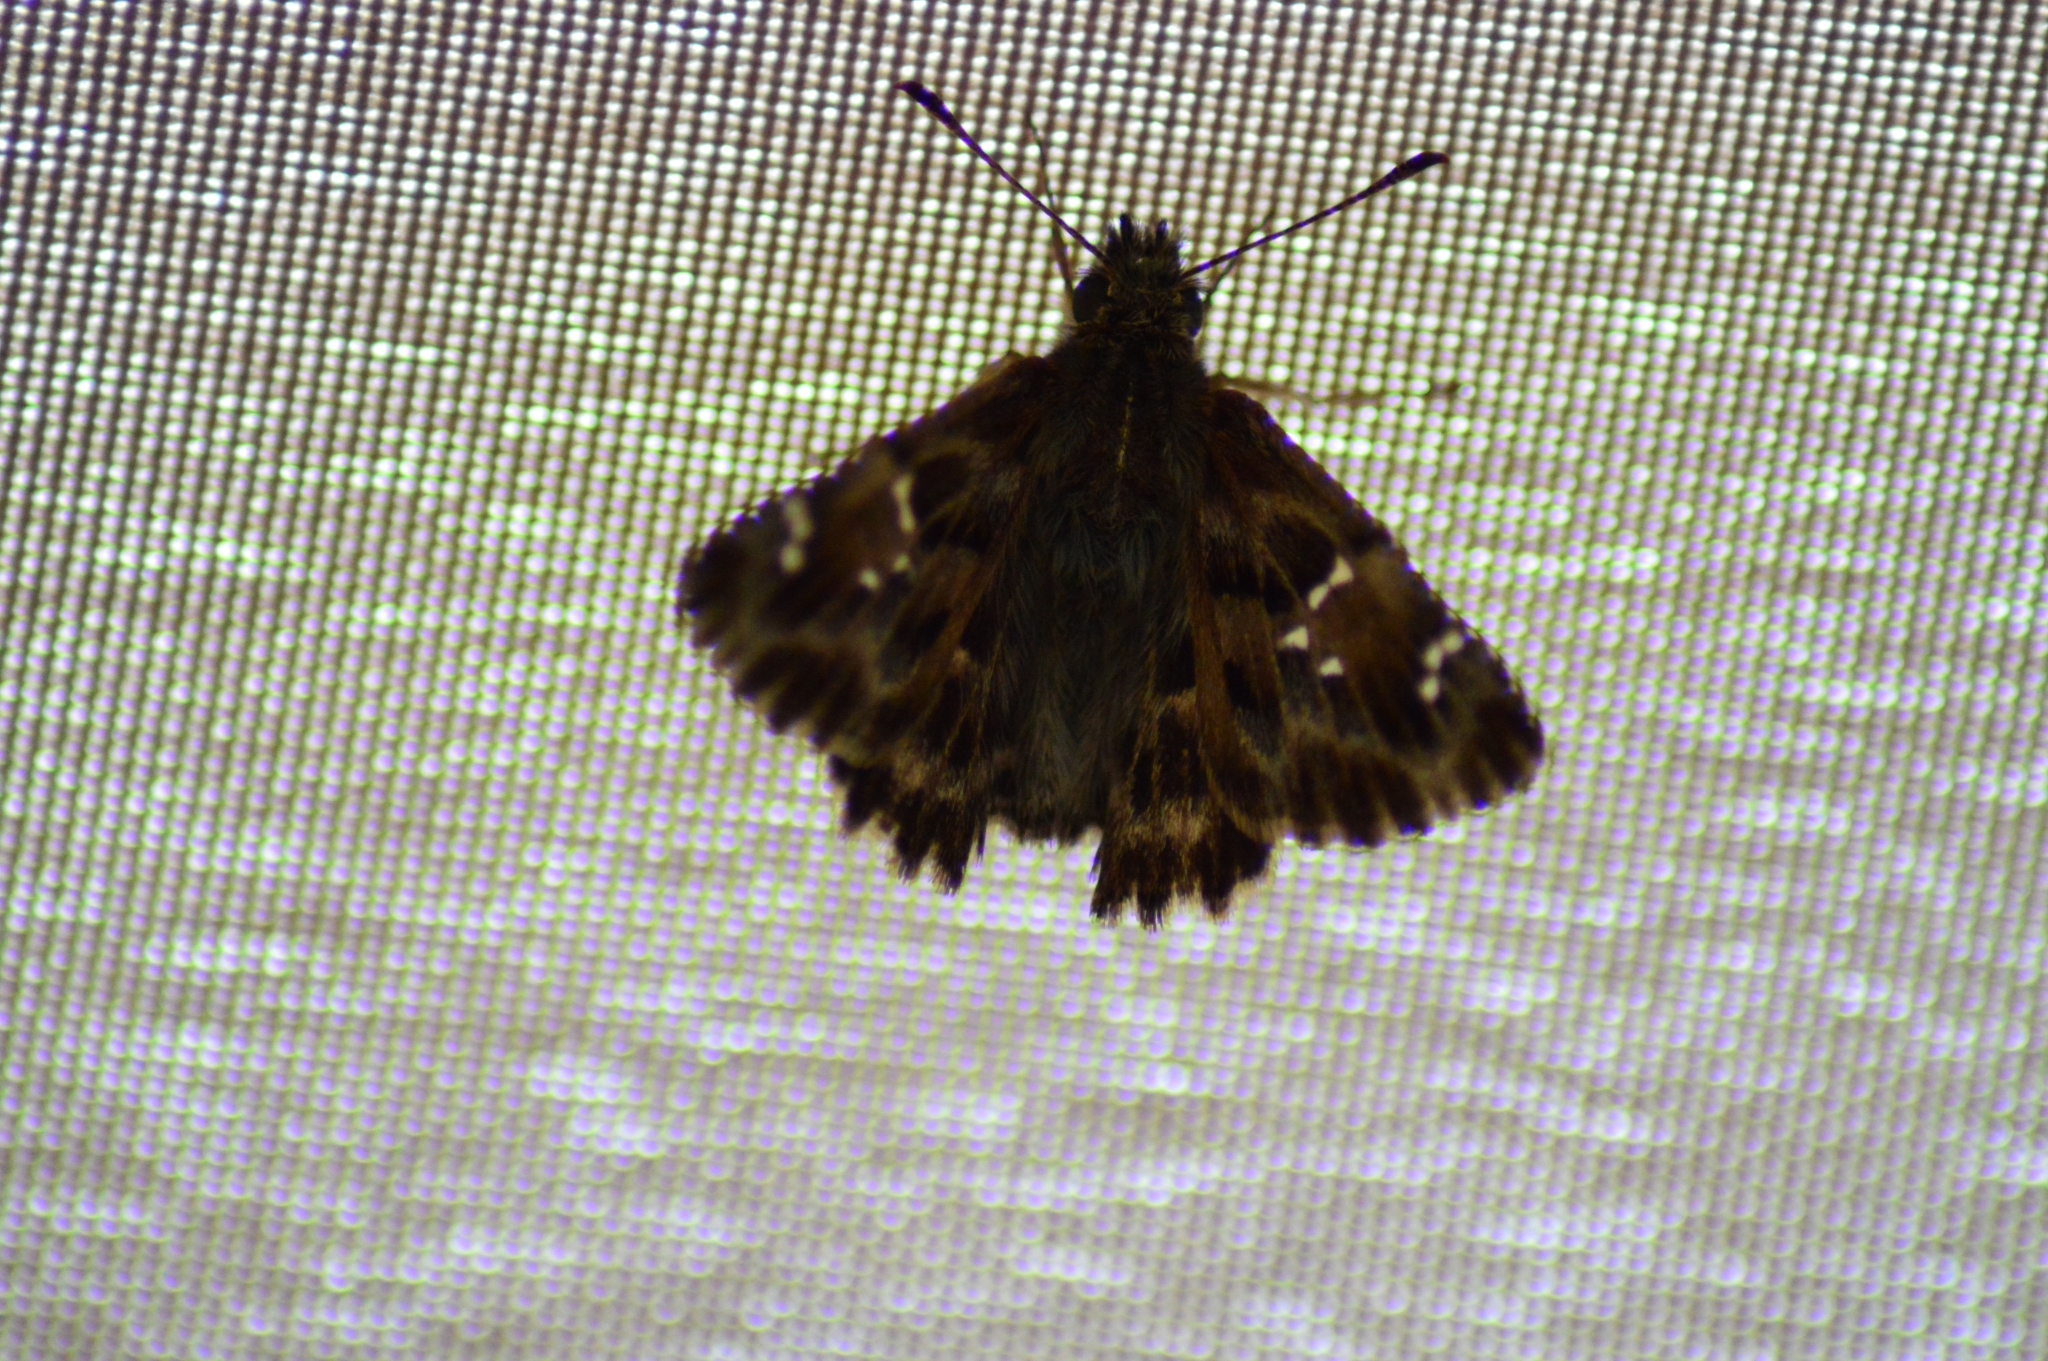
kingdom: Animalia
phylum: Arthropoda
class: Insecta
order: Lepidoptera
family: Hesperiidae
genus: Carcharodus
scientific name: Carcharodus alceae
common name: Mallow skipper
